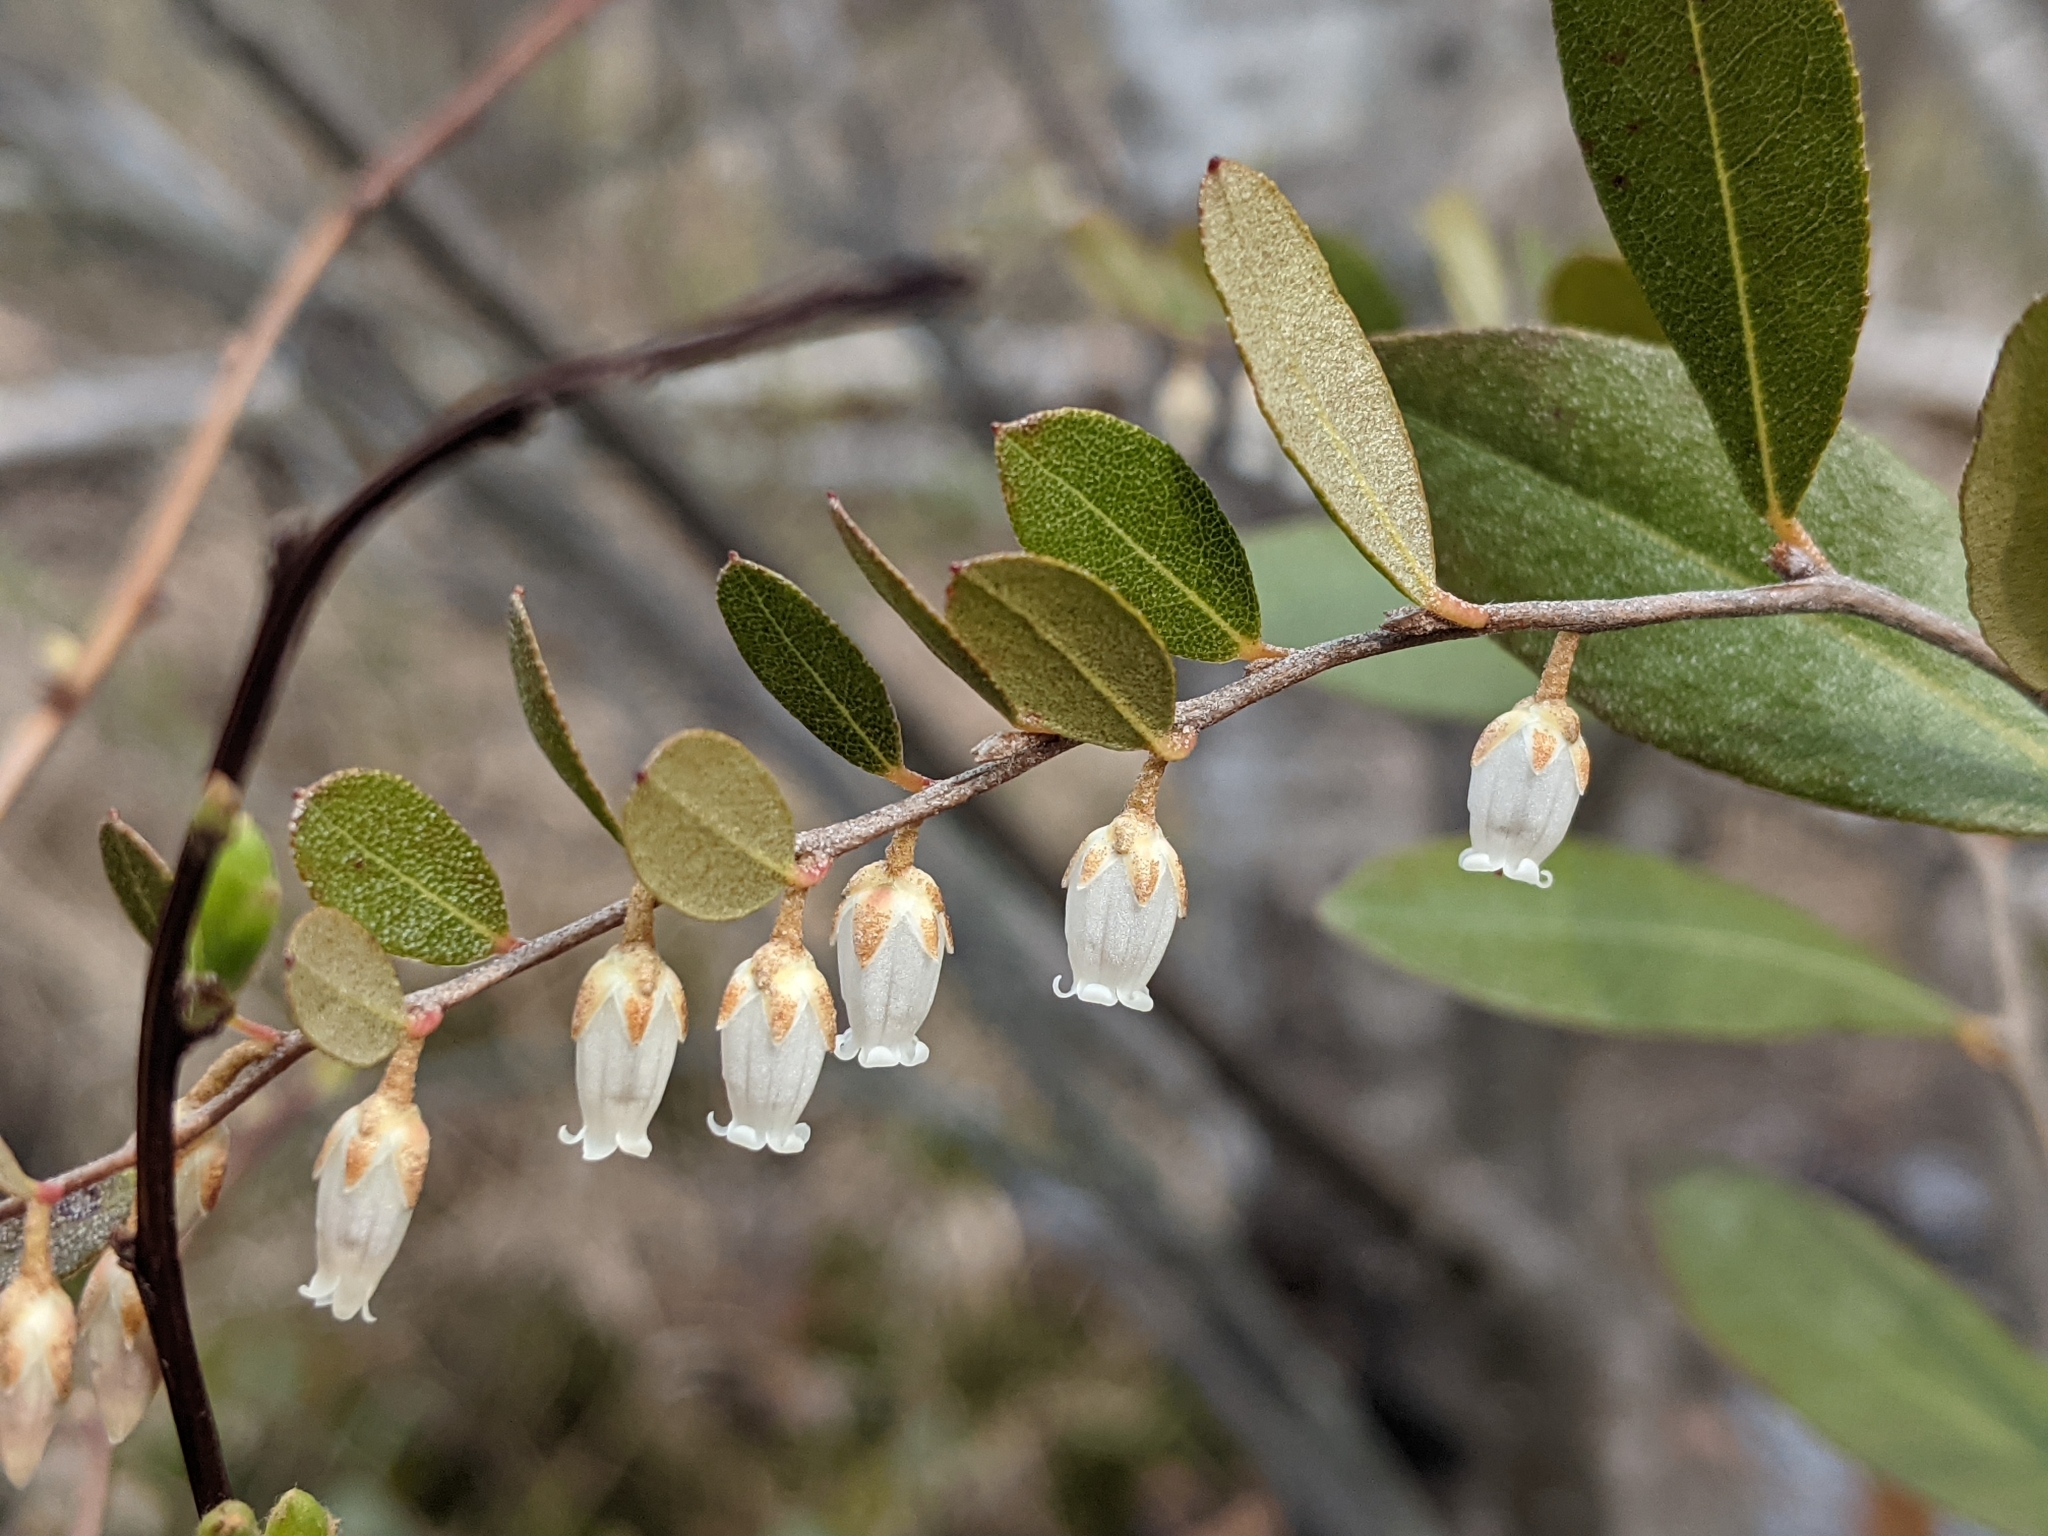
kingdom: Plantae
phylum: Tracheophyta
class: Magnoliopsida
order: Ericales
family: Ericaceae
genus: Chamaedaphne
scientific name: Chamaedaphne calyculata
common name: Leatherleaf
